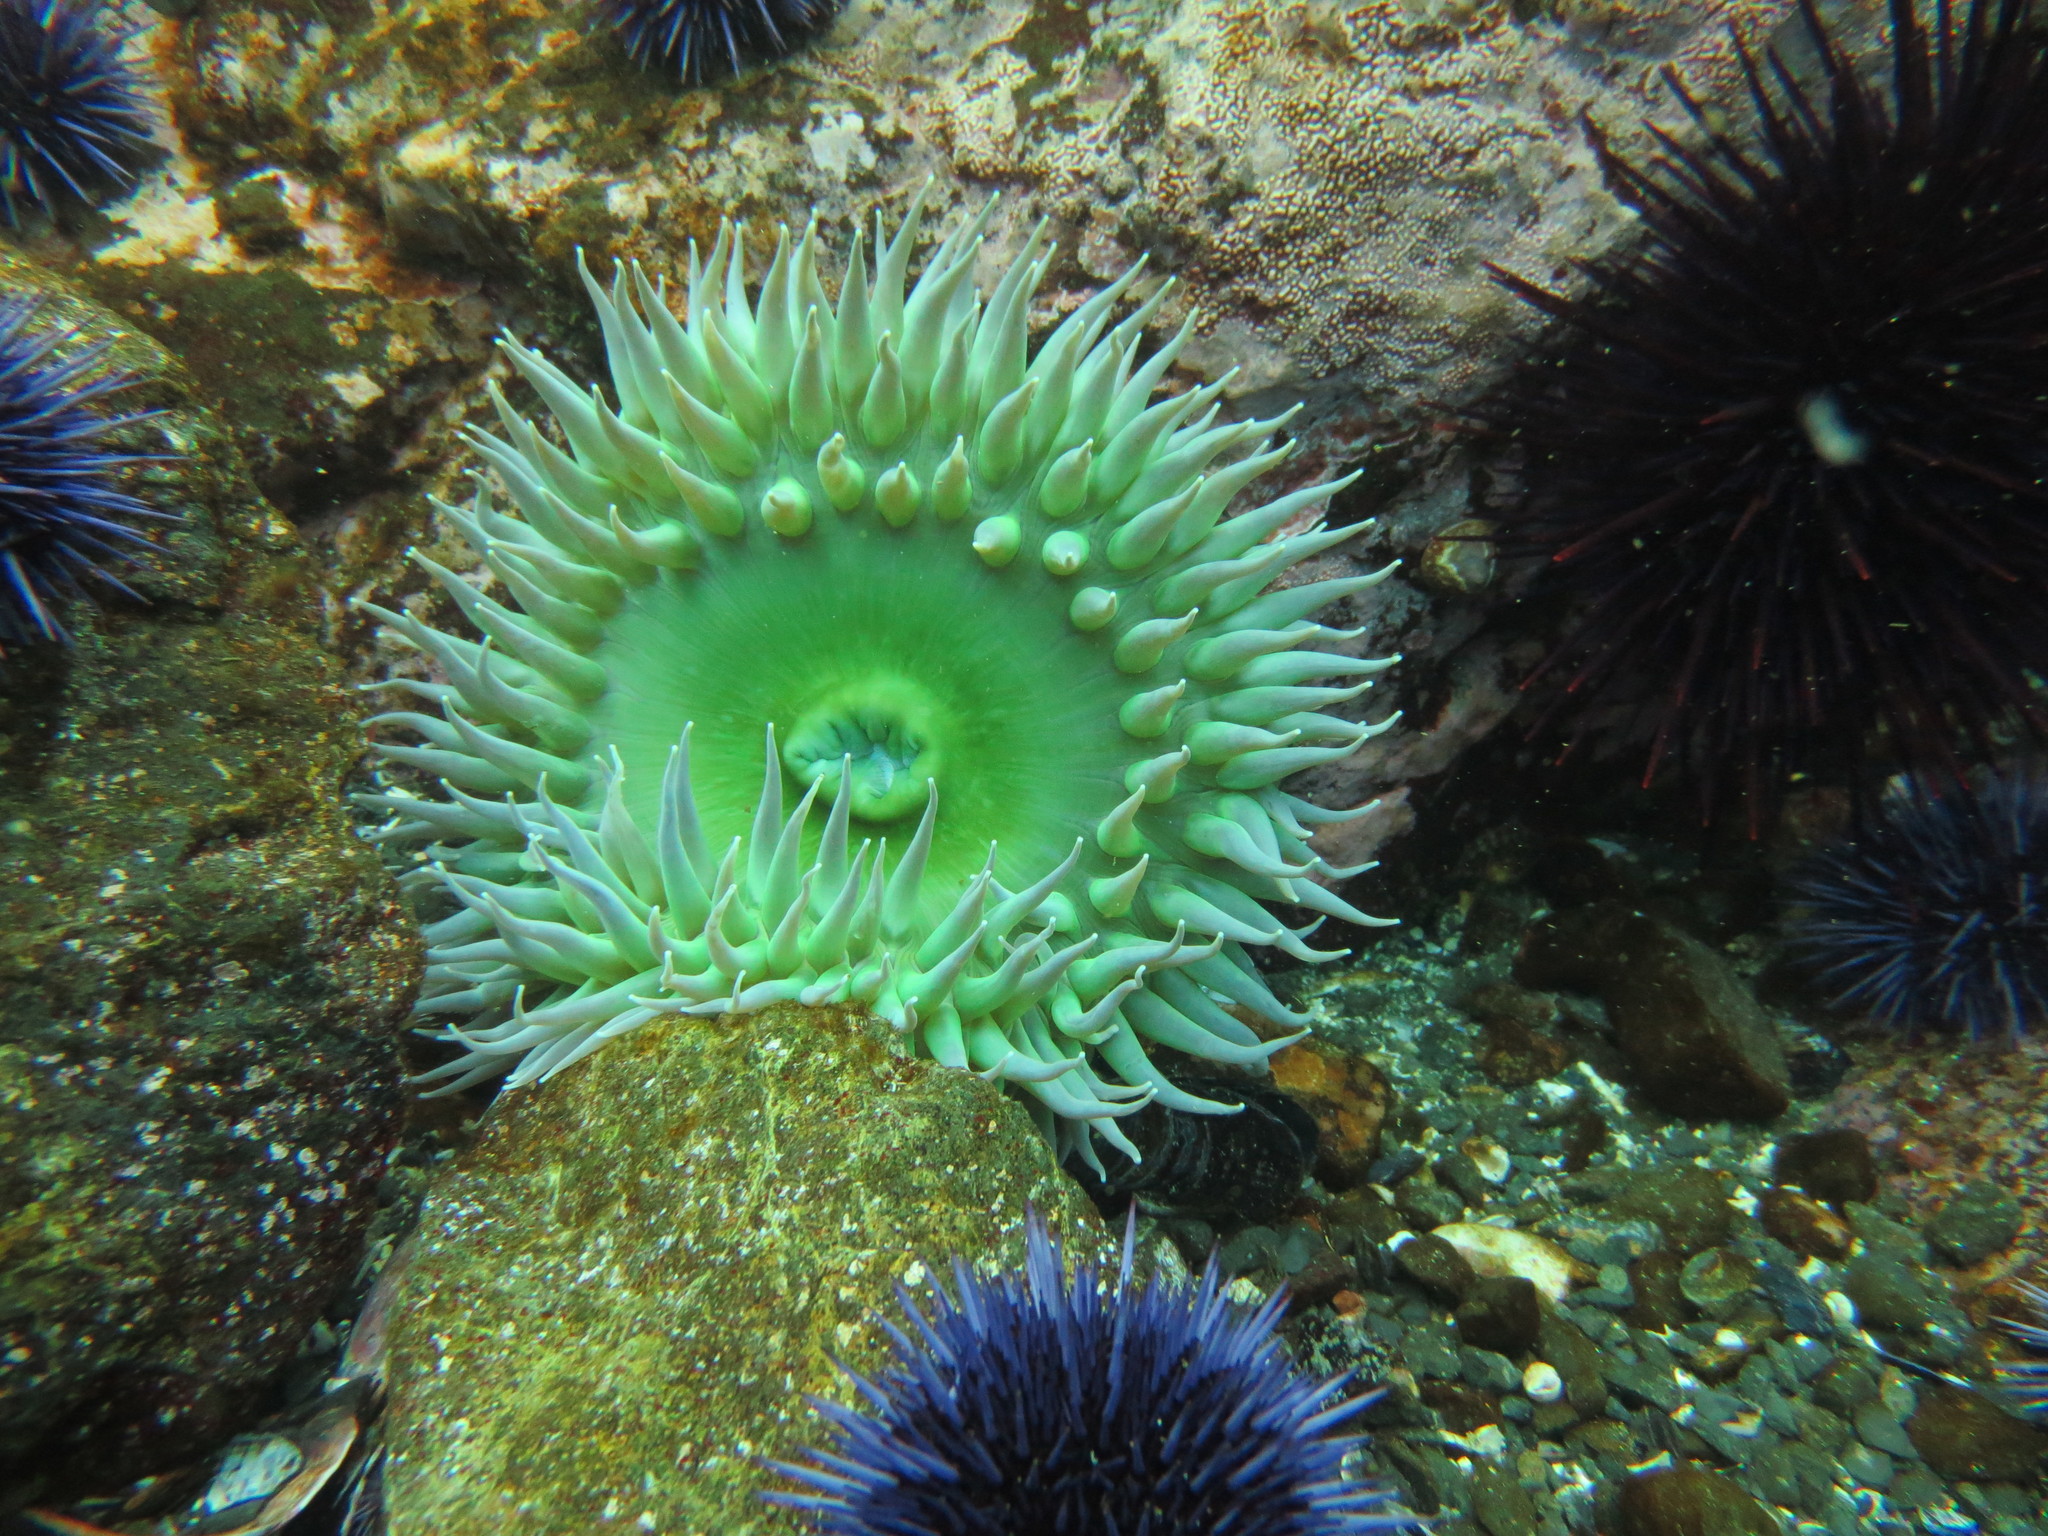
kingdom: Animalia
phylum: Cnidaria
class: Anthozoa
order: Actiniaria
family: Actiniidae
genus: Anthopleura
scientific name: Anthopleura xanthogrammica
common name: Giant green anemone
